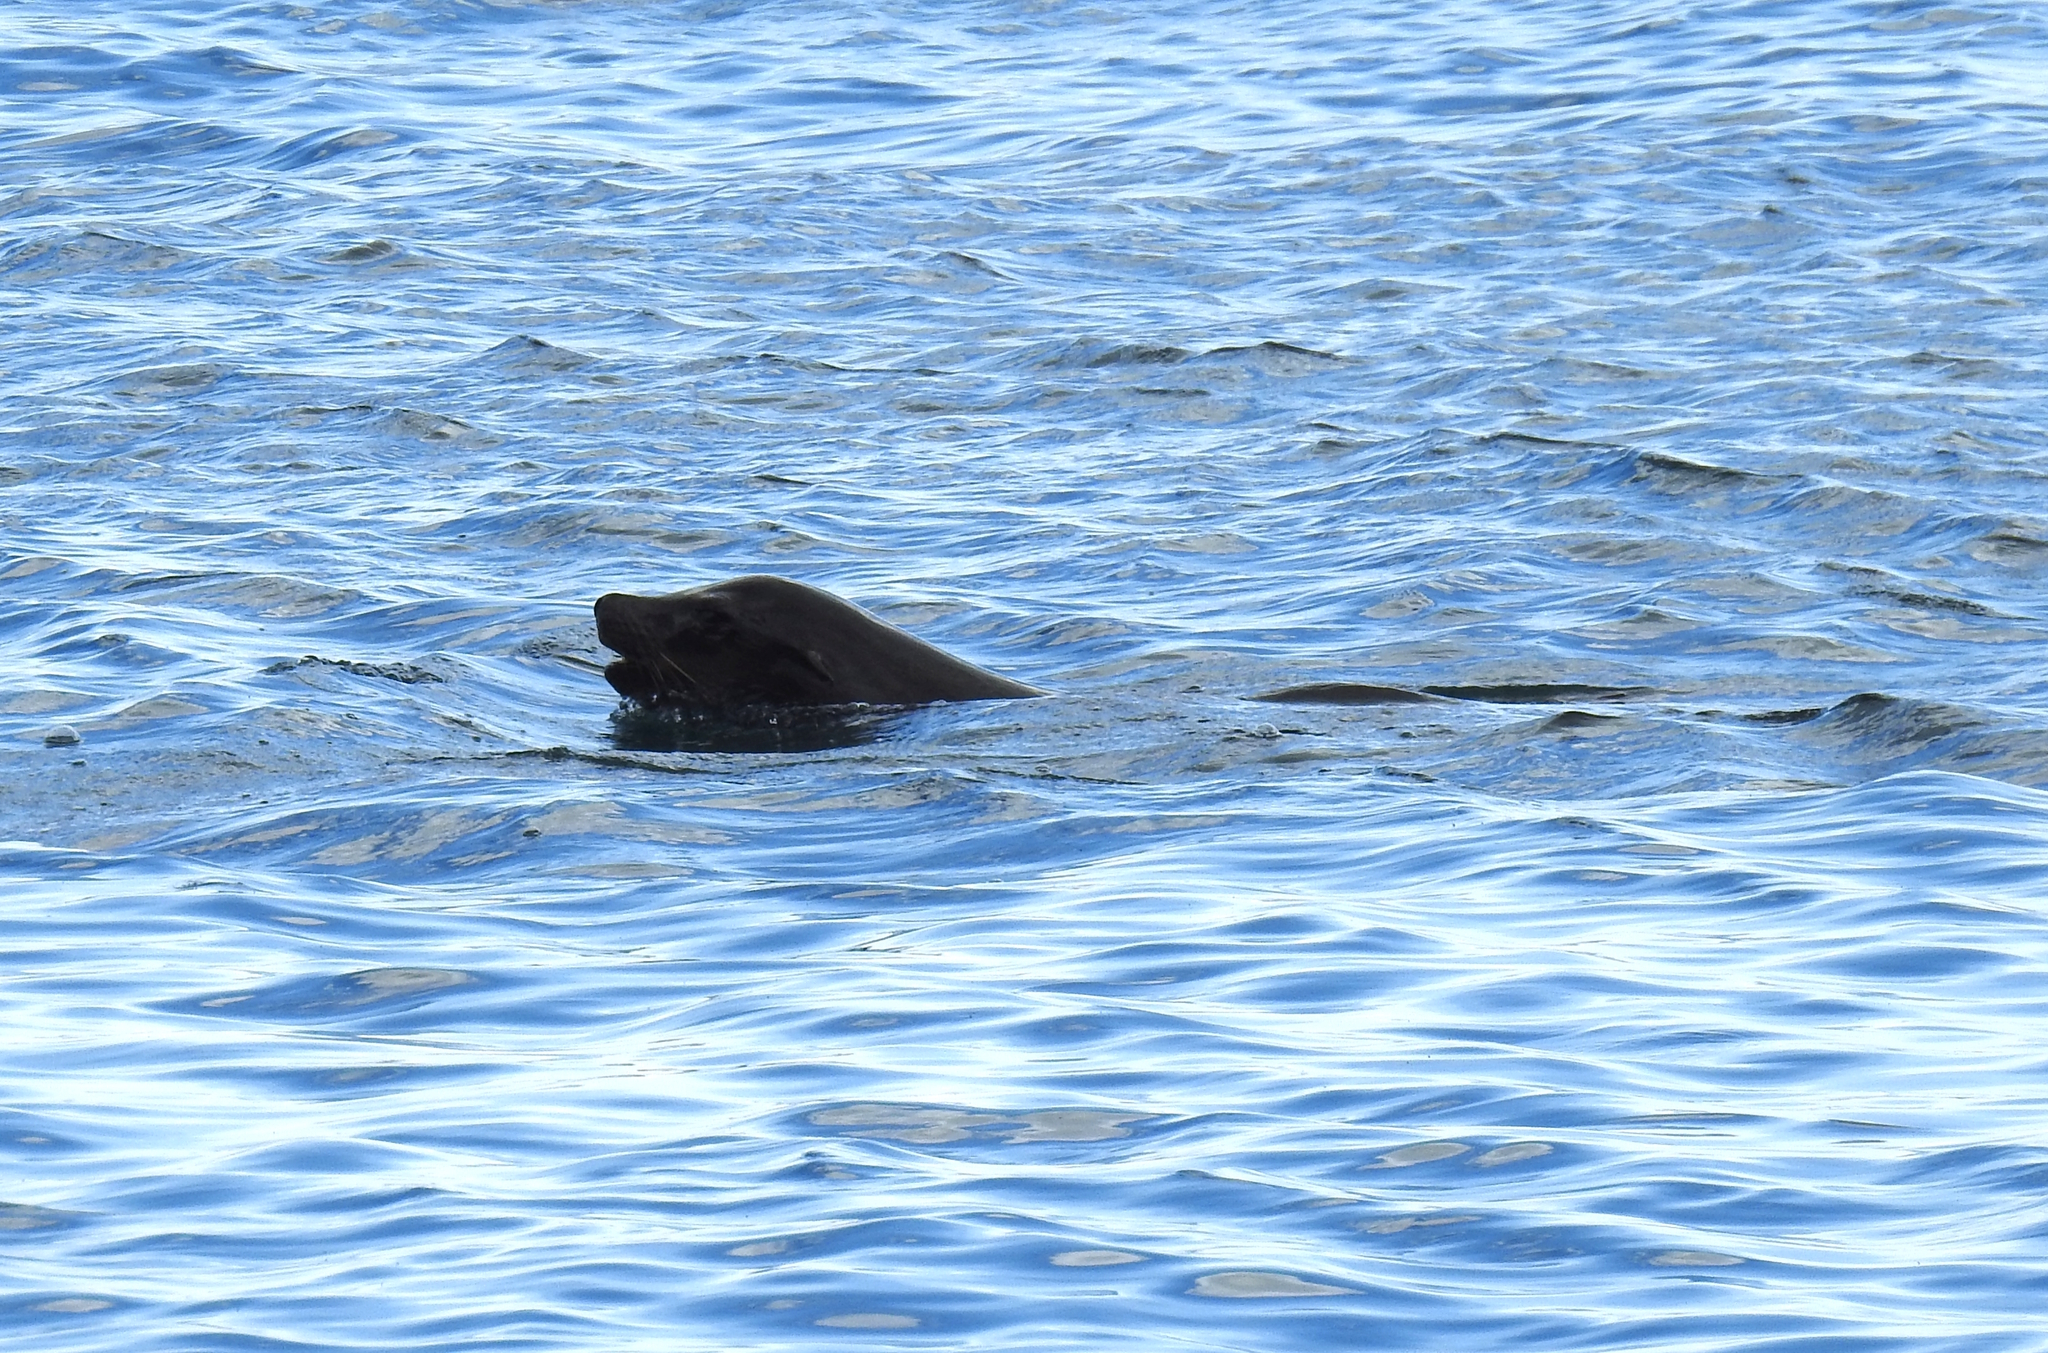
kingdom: Animalia
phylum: Chordata
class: Mammalia
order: Carnivora
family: Otariidae
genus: Zalophus
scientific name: Zalophus californianus
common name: California sea lion
